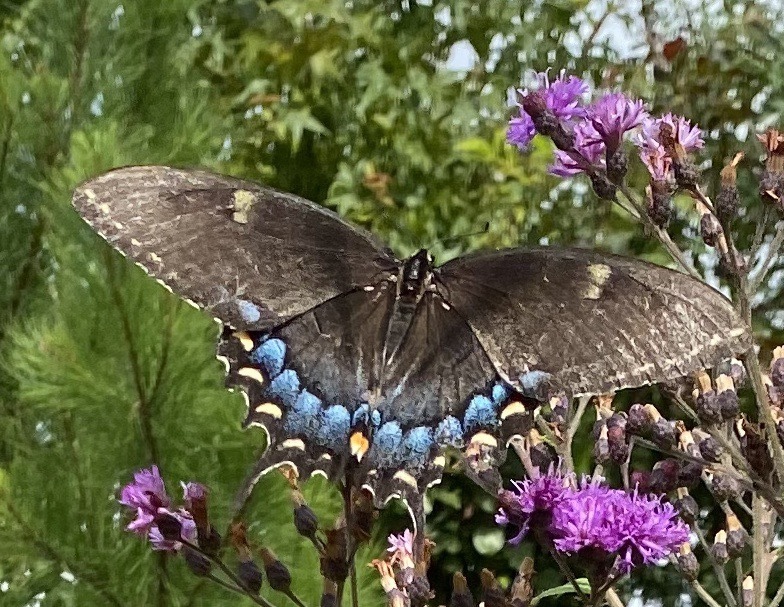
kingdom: Animalia
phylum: Arthropoda
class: Insecta
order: Lepidoptera
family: Papilionidae
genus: Papilio
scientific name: Papilio glaucus
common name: Tiger swallowtail
